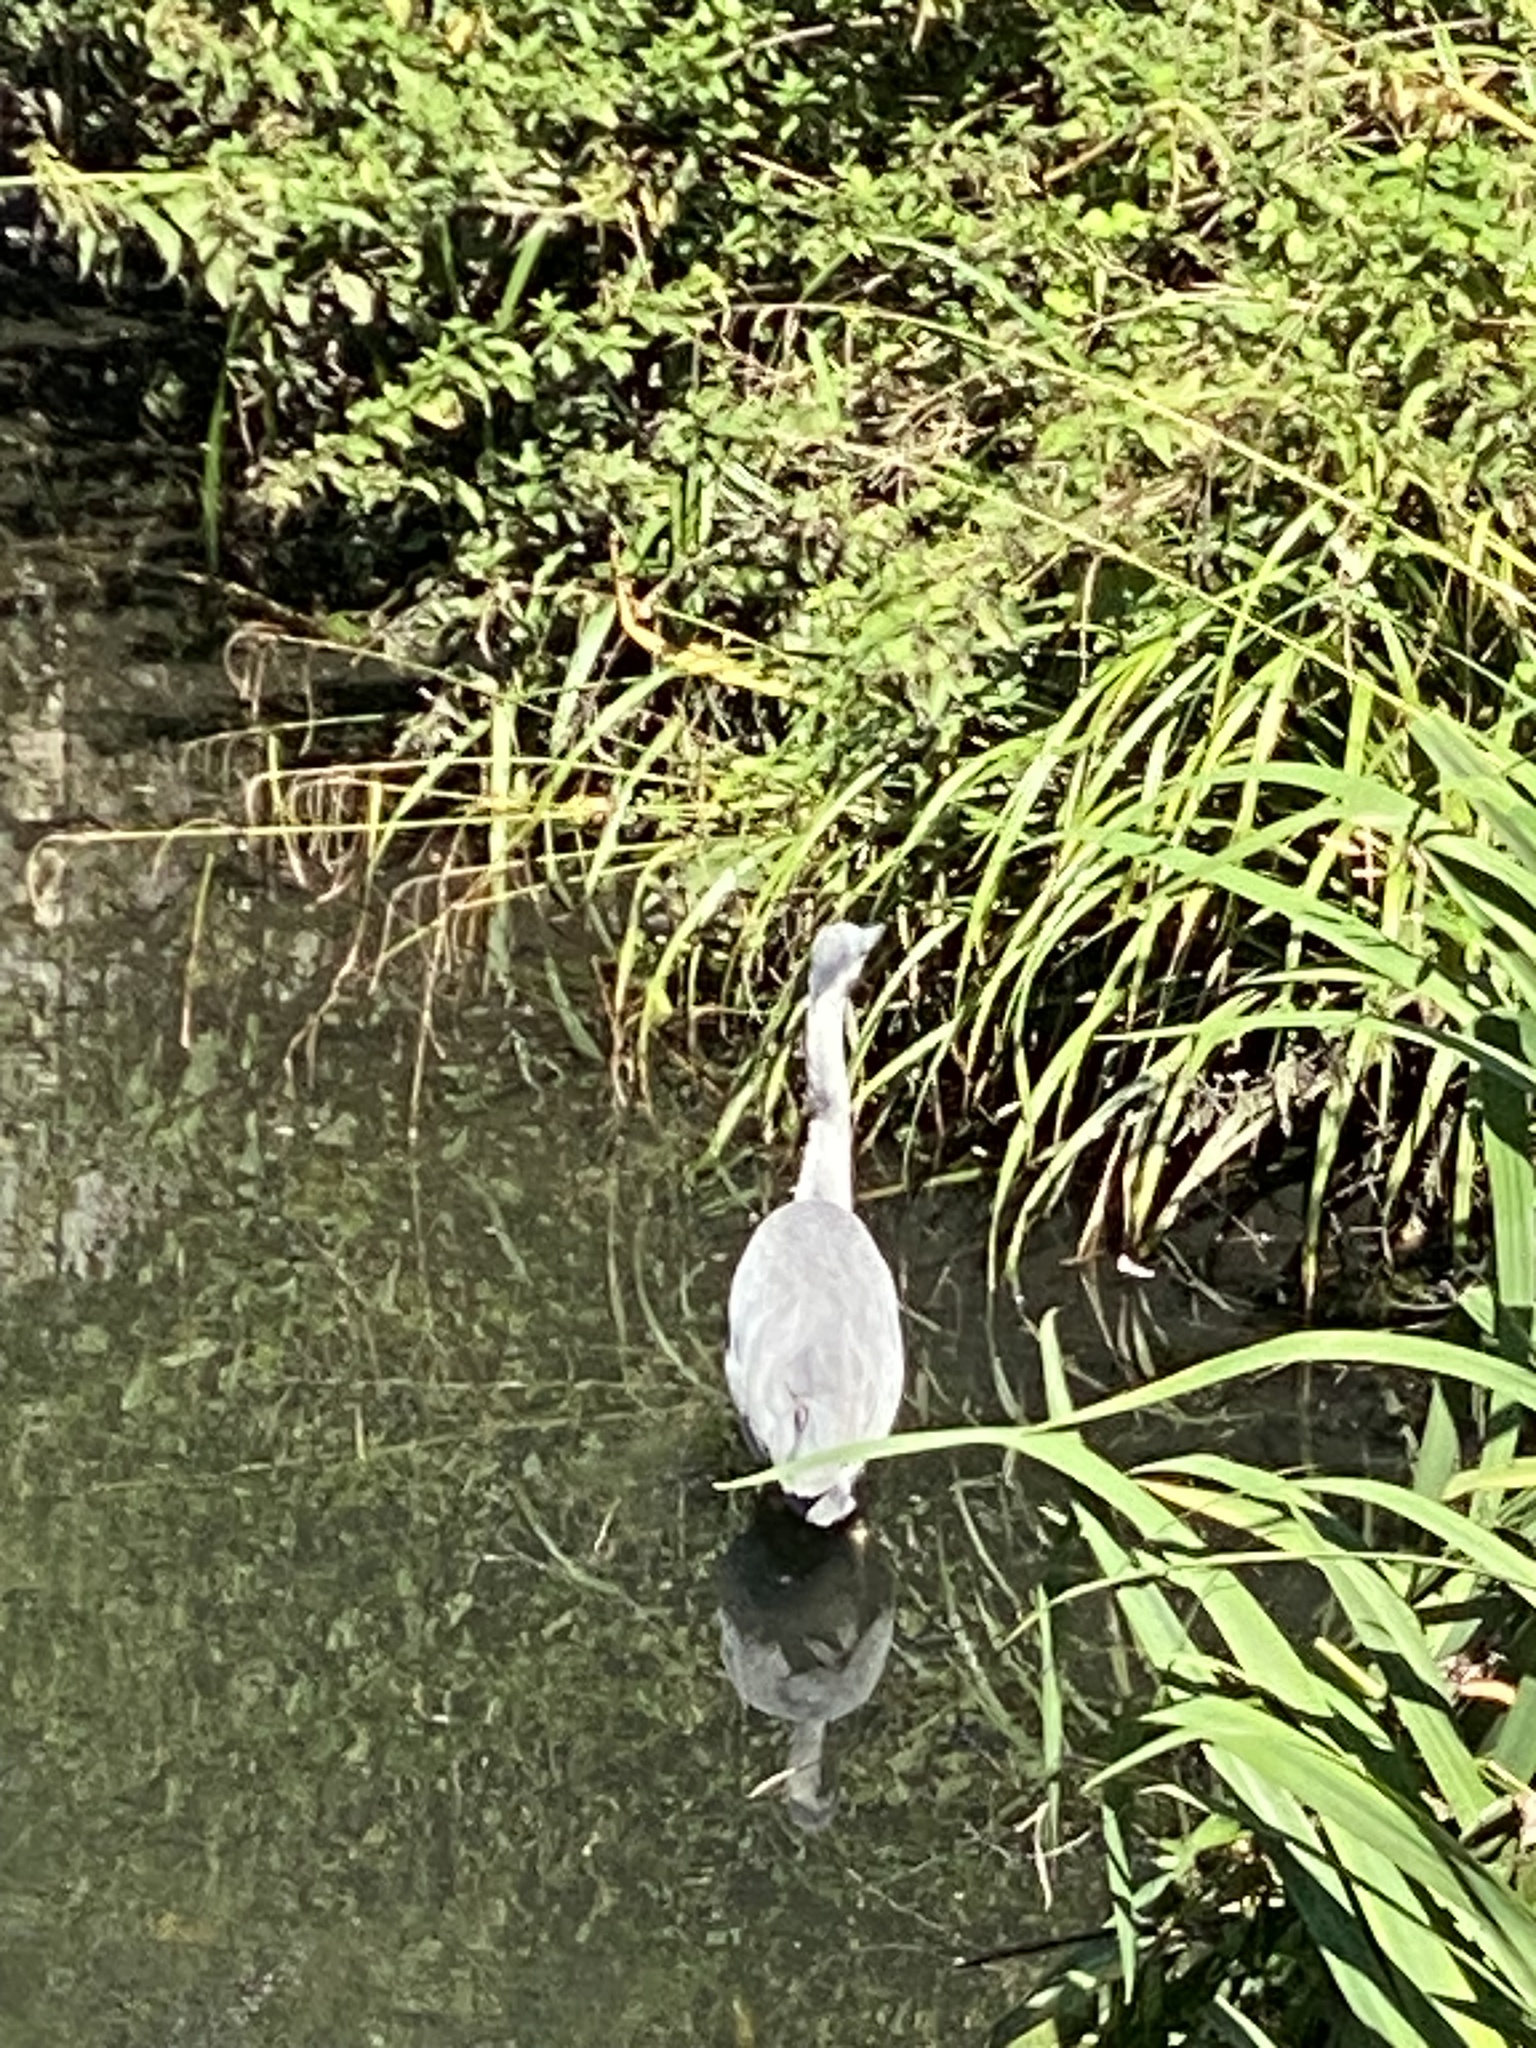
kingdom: Animalia
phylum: Chordata
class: Aves
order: Pelecaniformes
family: Ardeidae
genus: Ardea
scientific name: Ardea cinerea
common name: Grey heron
